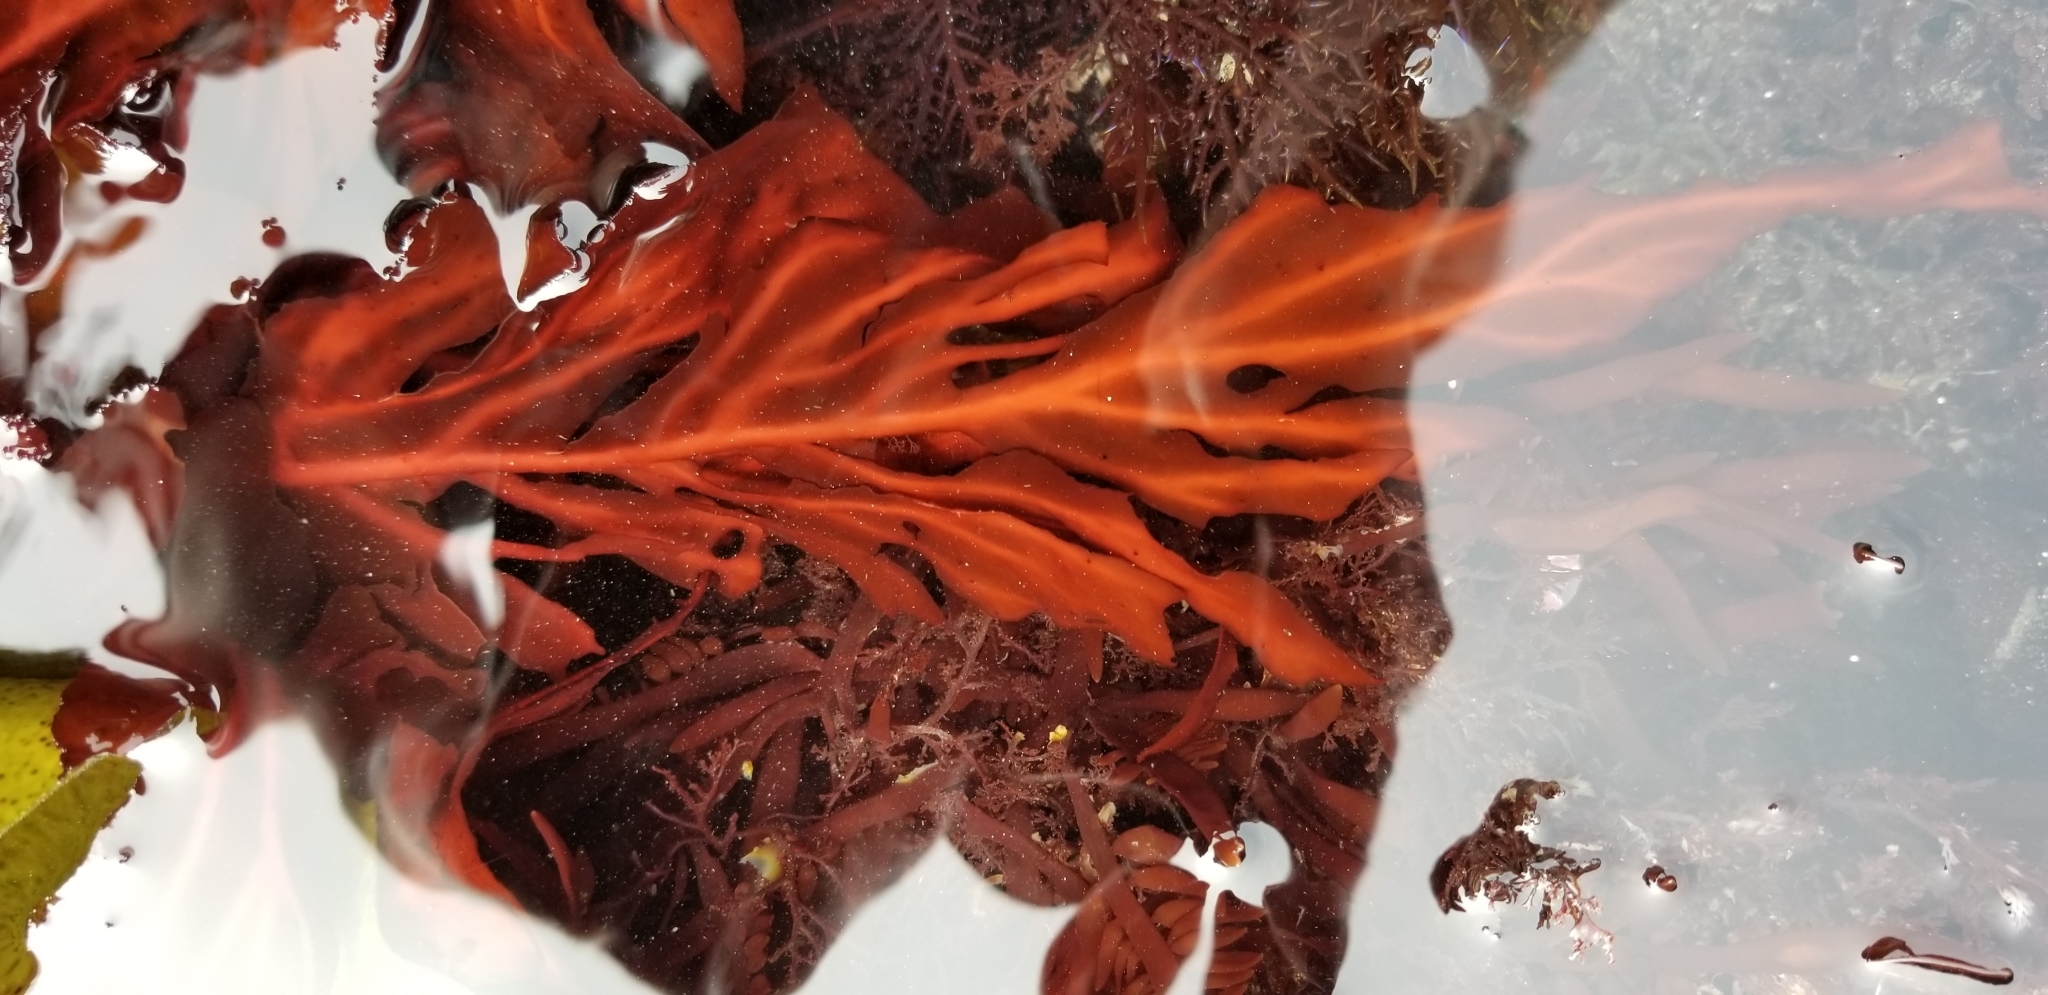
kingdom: Plantae
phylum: Rhodophyta
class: Florideophyceae
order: Gigartinales
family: Kallymeniaceae
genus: Erythrophyllum
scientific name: Erythrophyllum delesserioides
